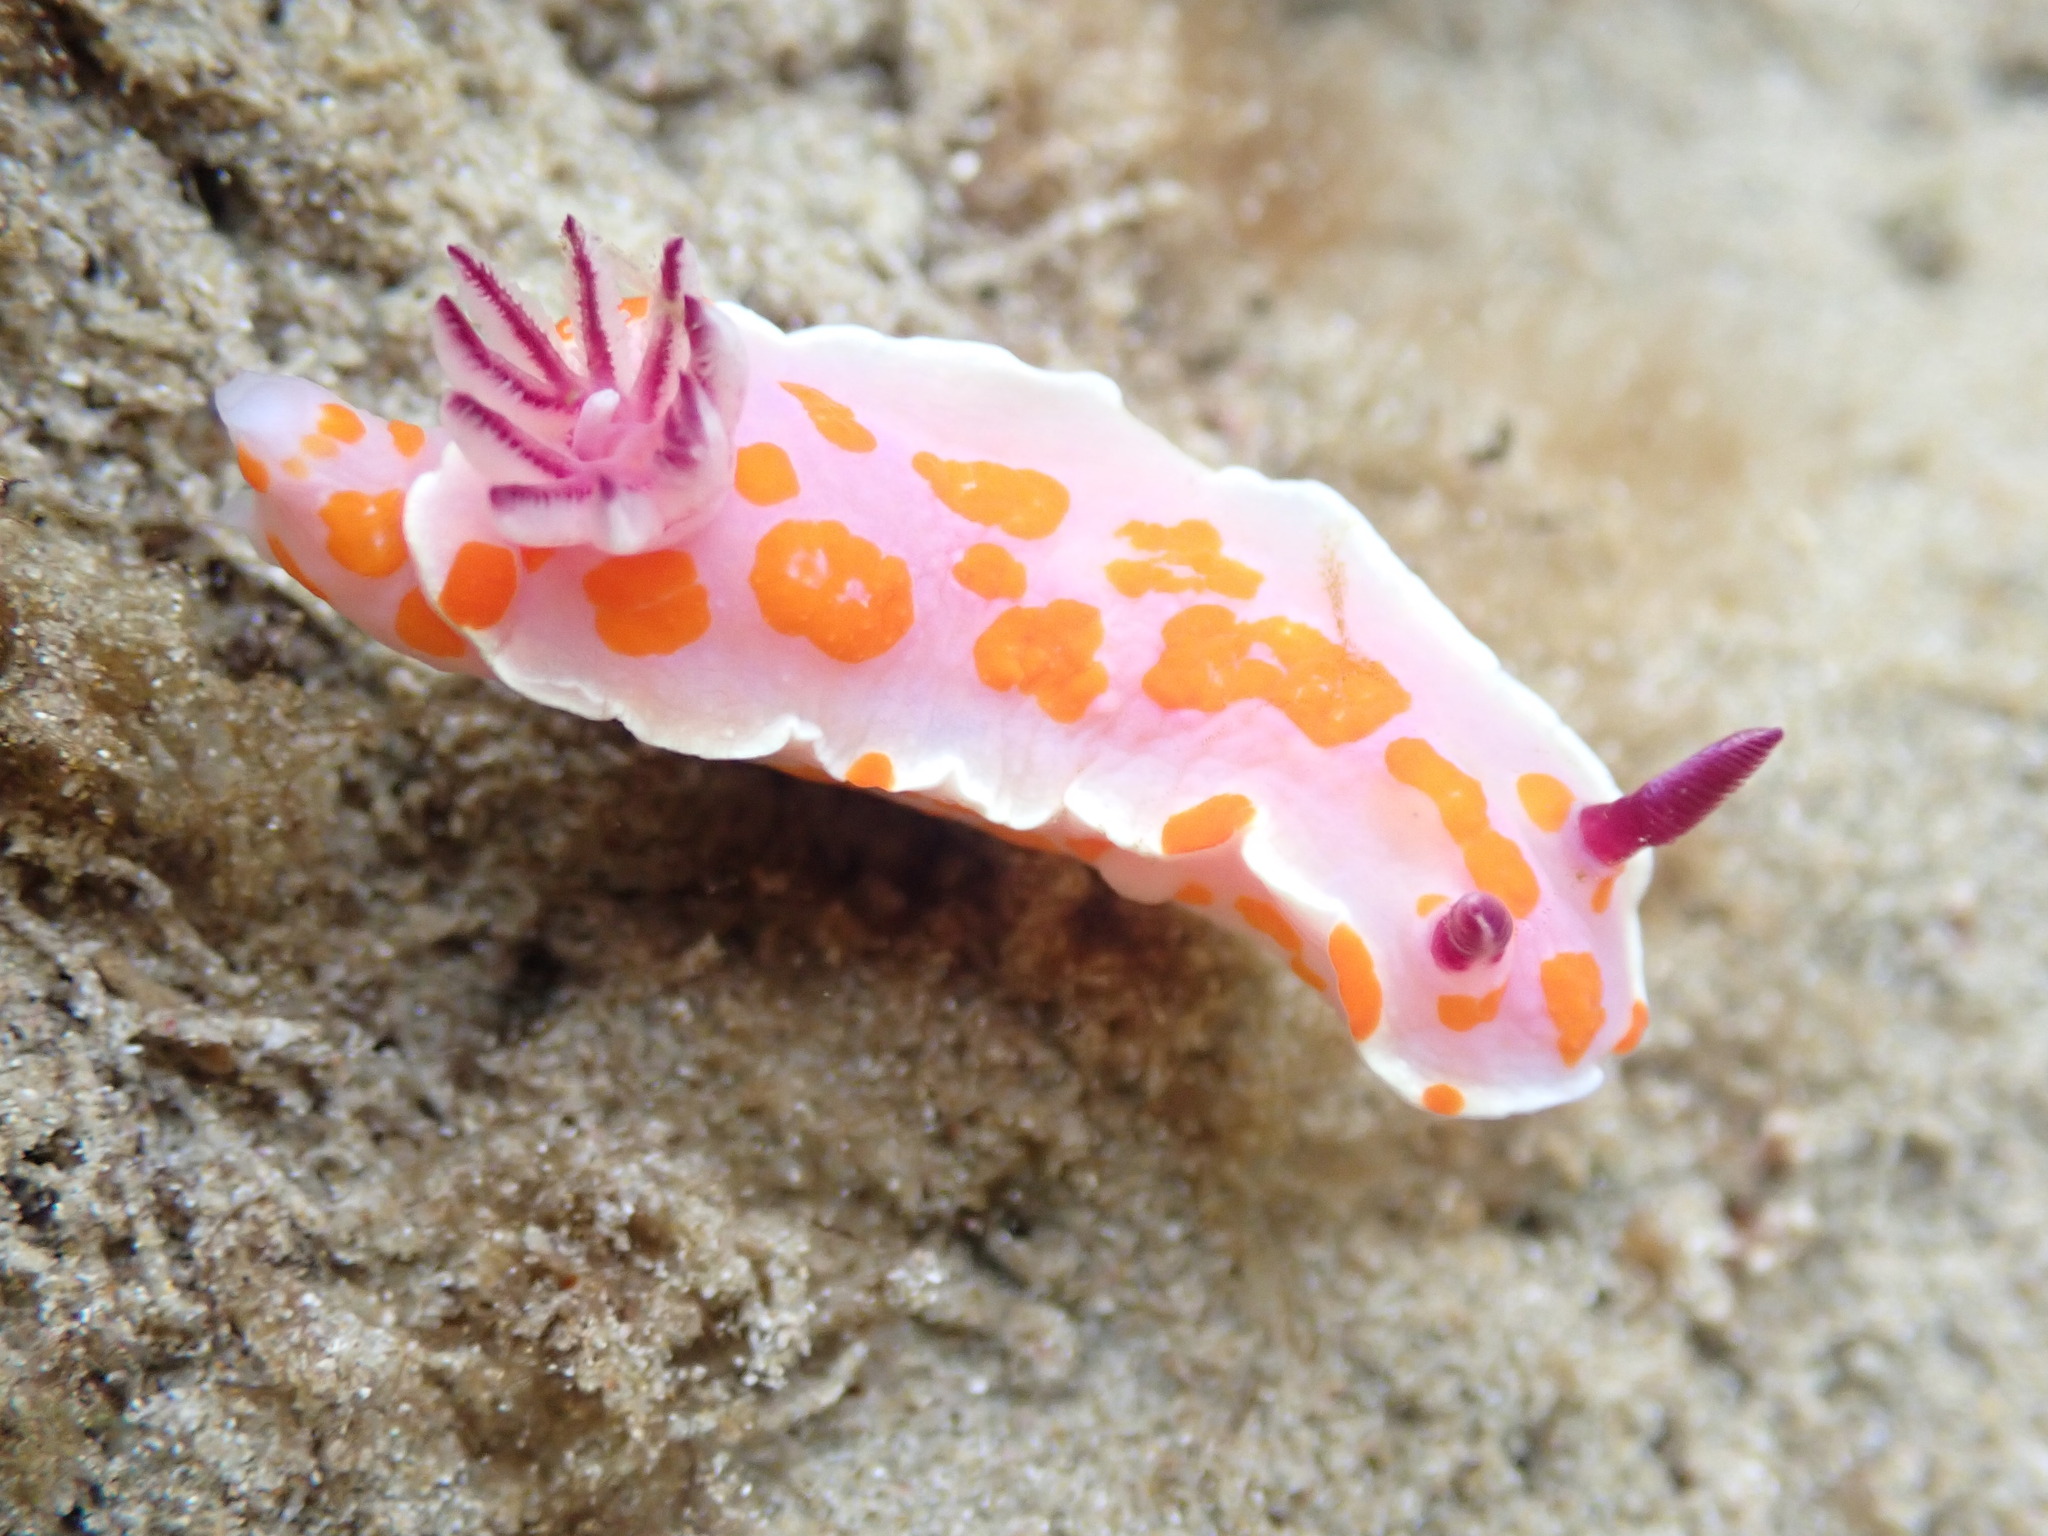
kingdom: Animalia
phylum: Mollusca
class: Gastropoda
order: Nudibranchia
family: Chromodorididae
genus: Ceratosoma
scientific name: Ceratosoma amoenum
